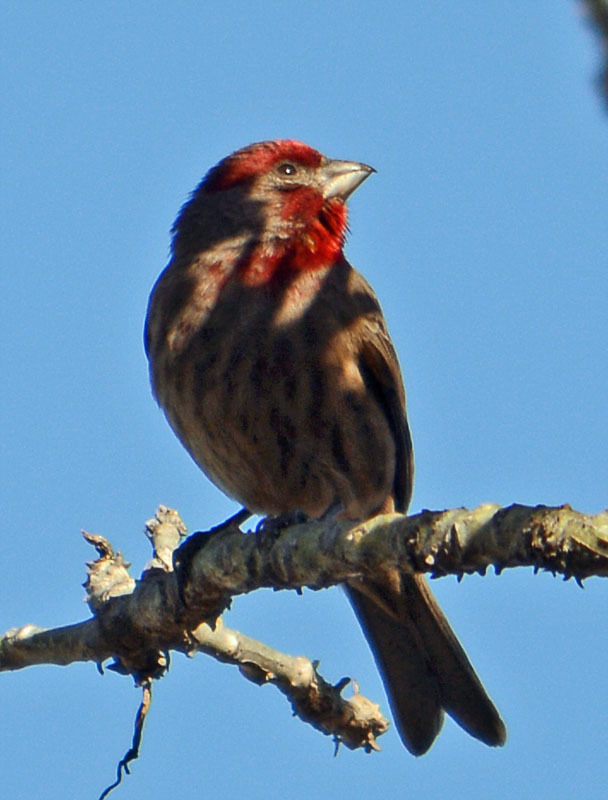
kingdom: Animalia
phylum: Chordata
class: Aves
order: Passeriformes
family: Fringillidae
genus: Haemorhous
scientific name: Haemorhous mexicanus
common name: House finch
